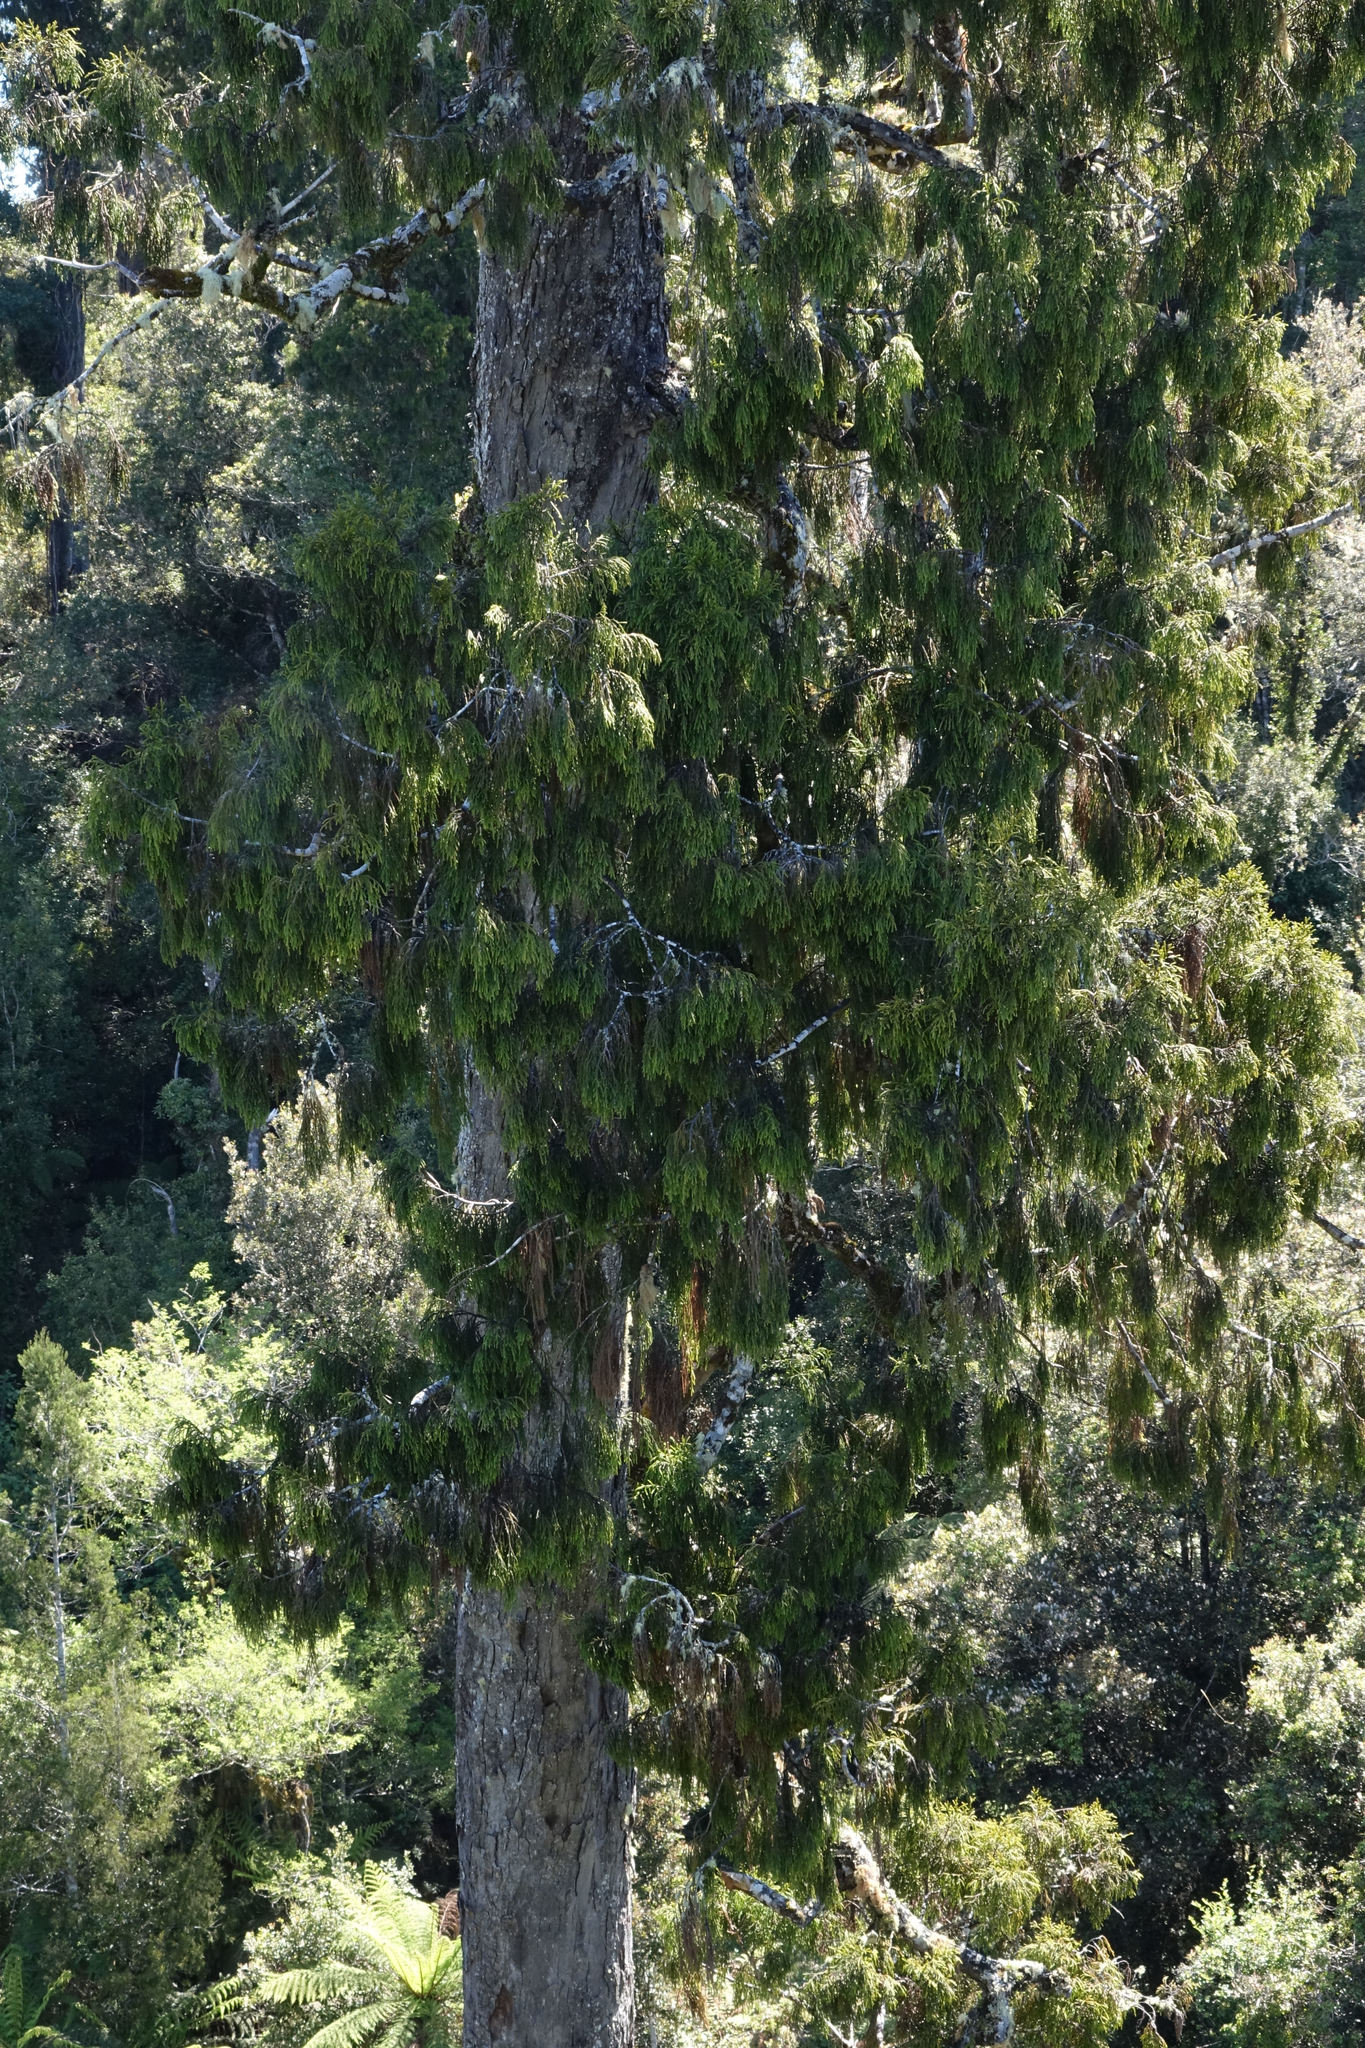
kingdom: Plantae
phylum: Tracheophyta
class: Pinopsida
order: Pinales
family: Podocarpaceae
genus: Dacrydium
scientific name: Dacrydium cupressinum
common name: Red pine
